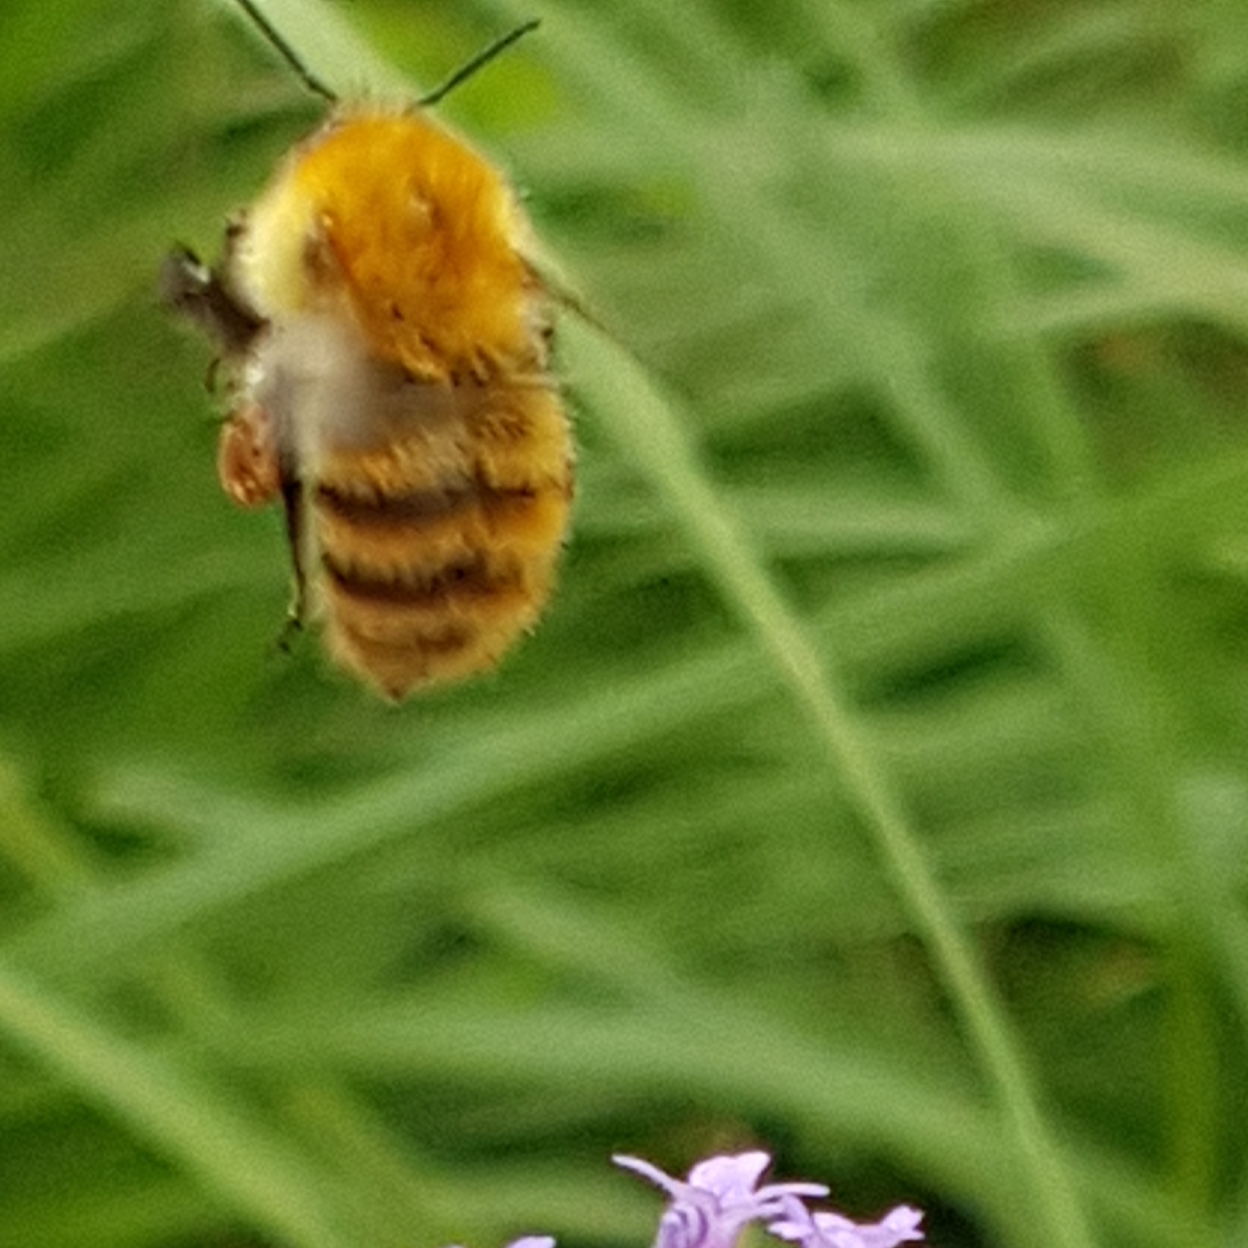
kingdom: Animalia
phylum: Arthropoda
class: Insecta
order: Hymenoptera
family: Apidae
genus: Bombus
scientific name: Bombus pascuorum
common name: Common carder bee
